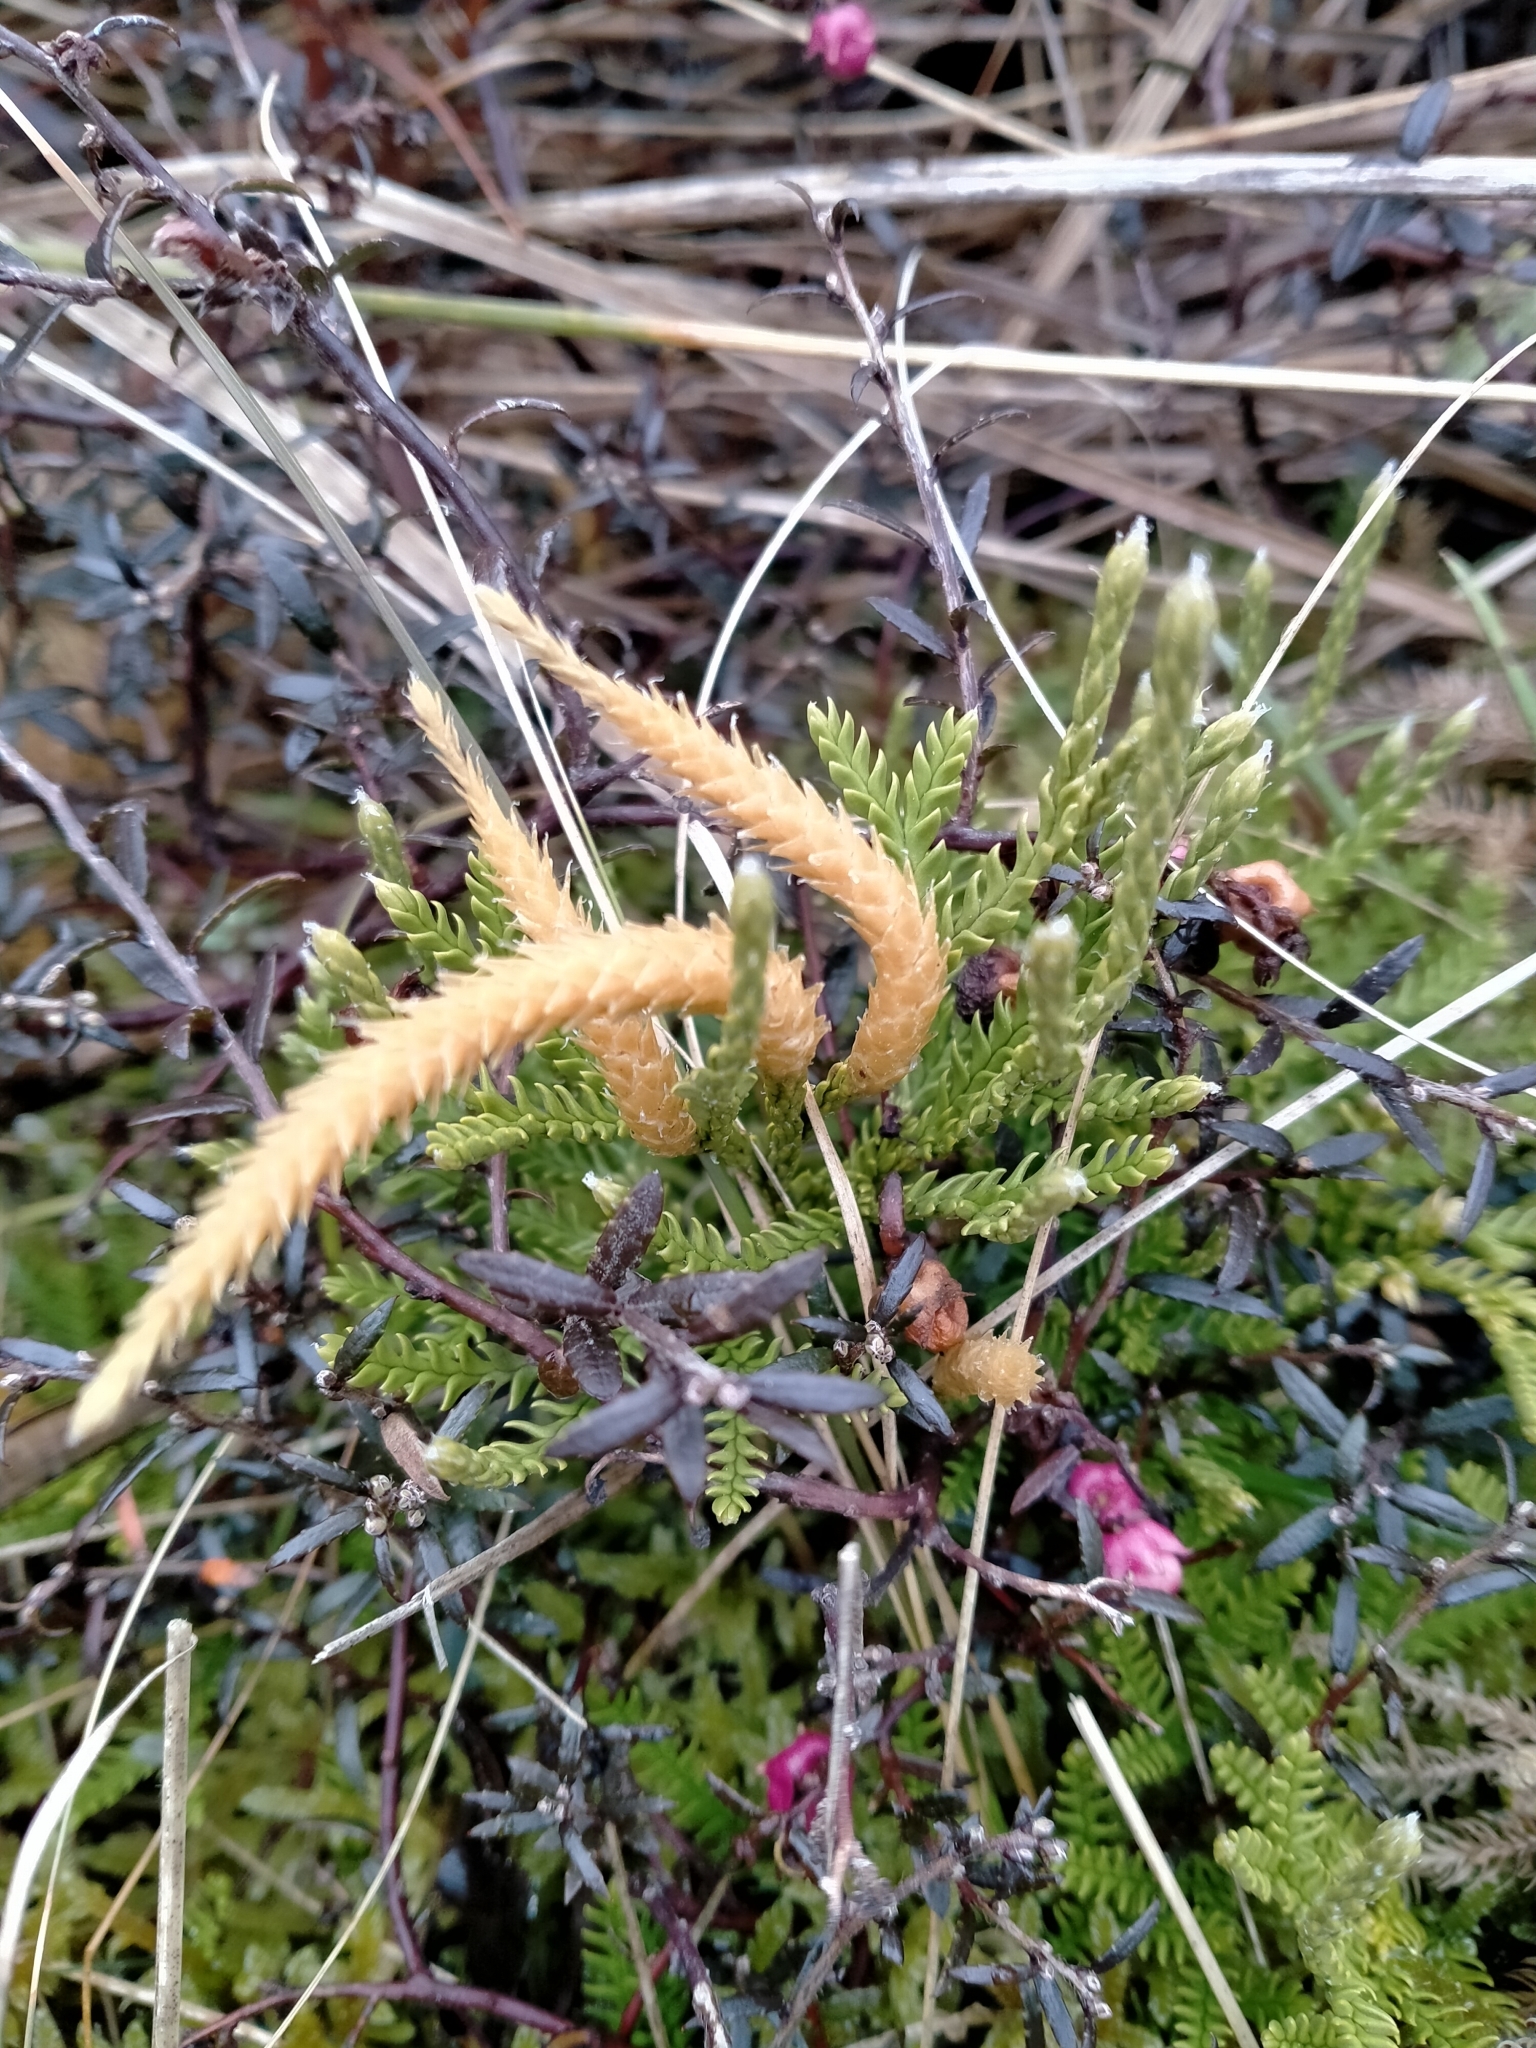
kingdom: Plantae
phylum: Tracheophyta
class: Lycopodiopsida
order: Lycopodiales
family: Lycopodiaceae
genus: Diphasium
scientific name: Diphasium scariosum
